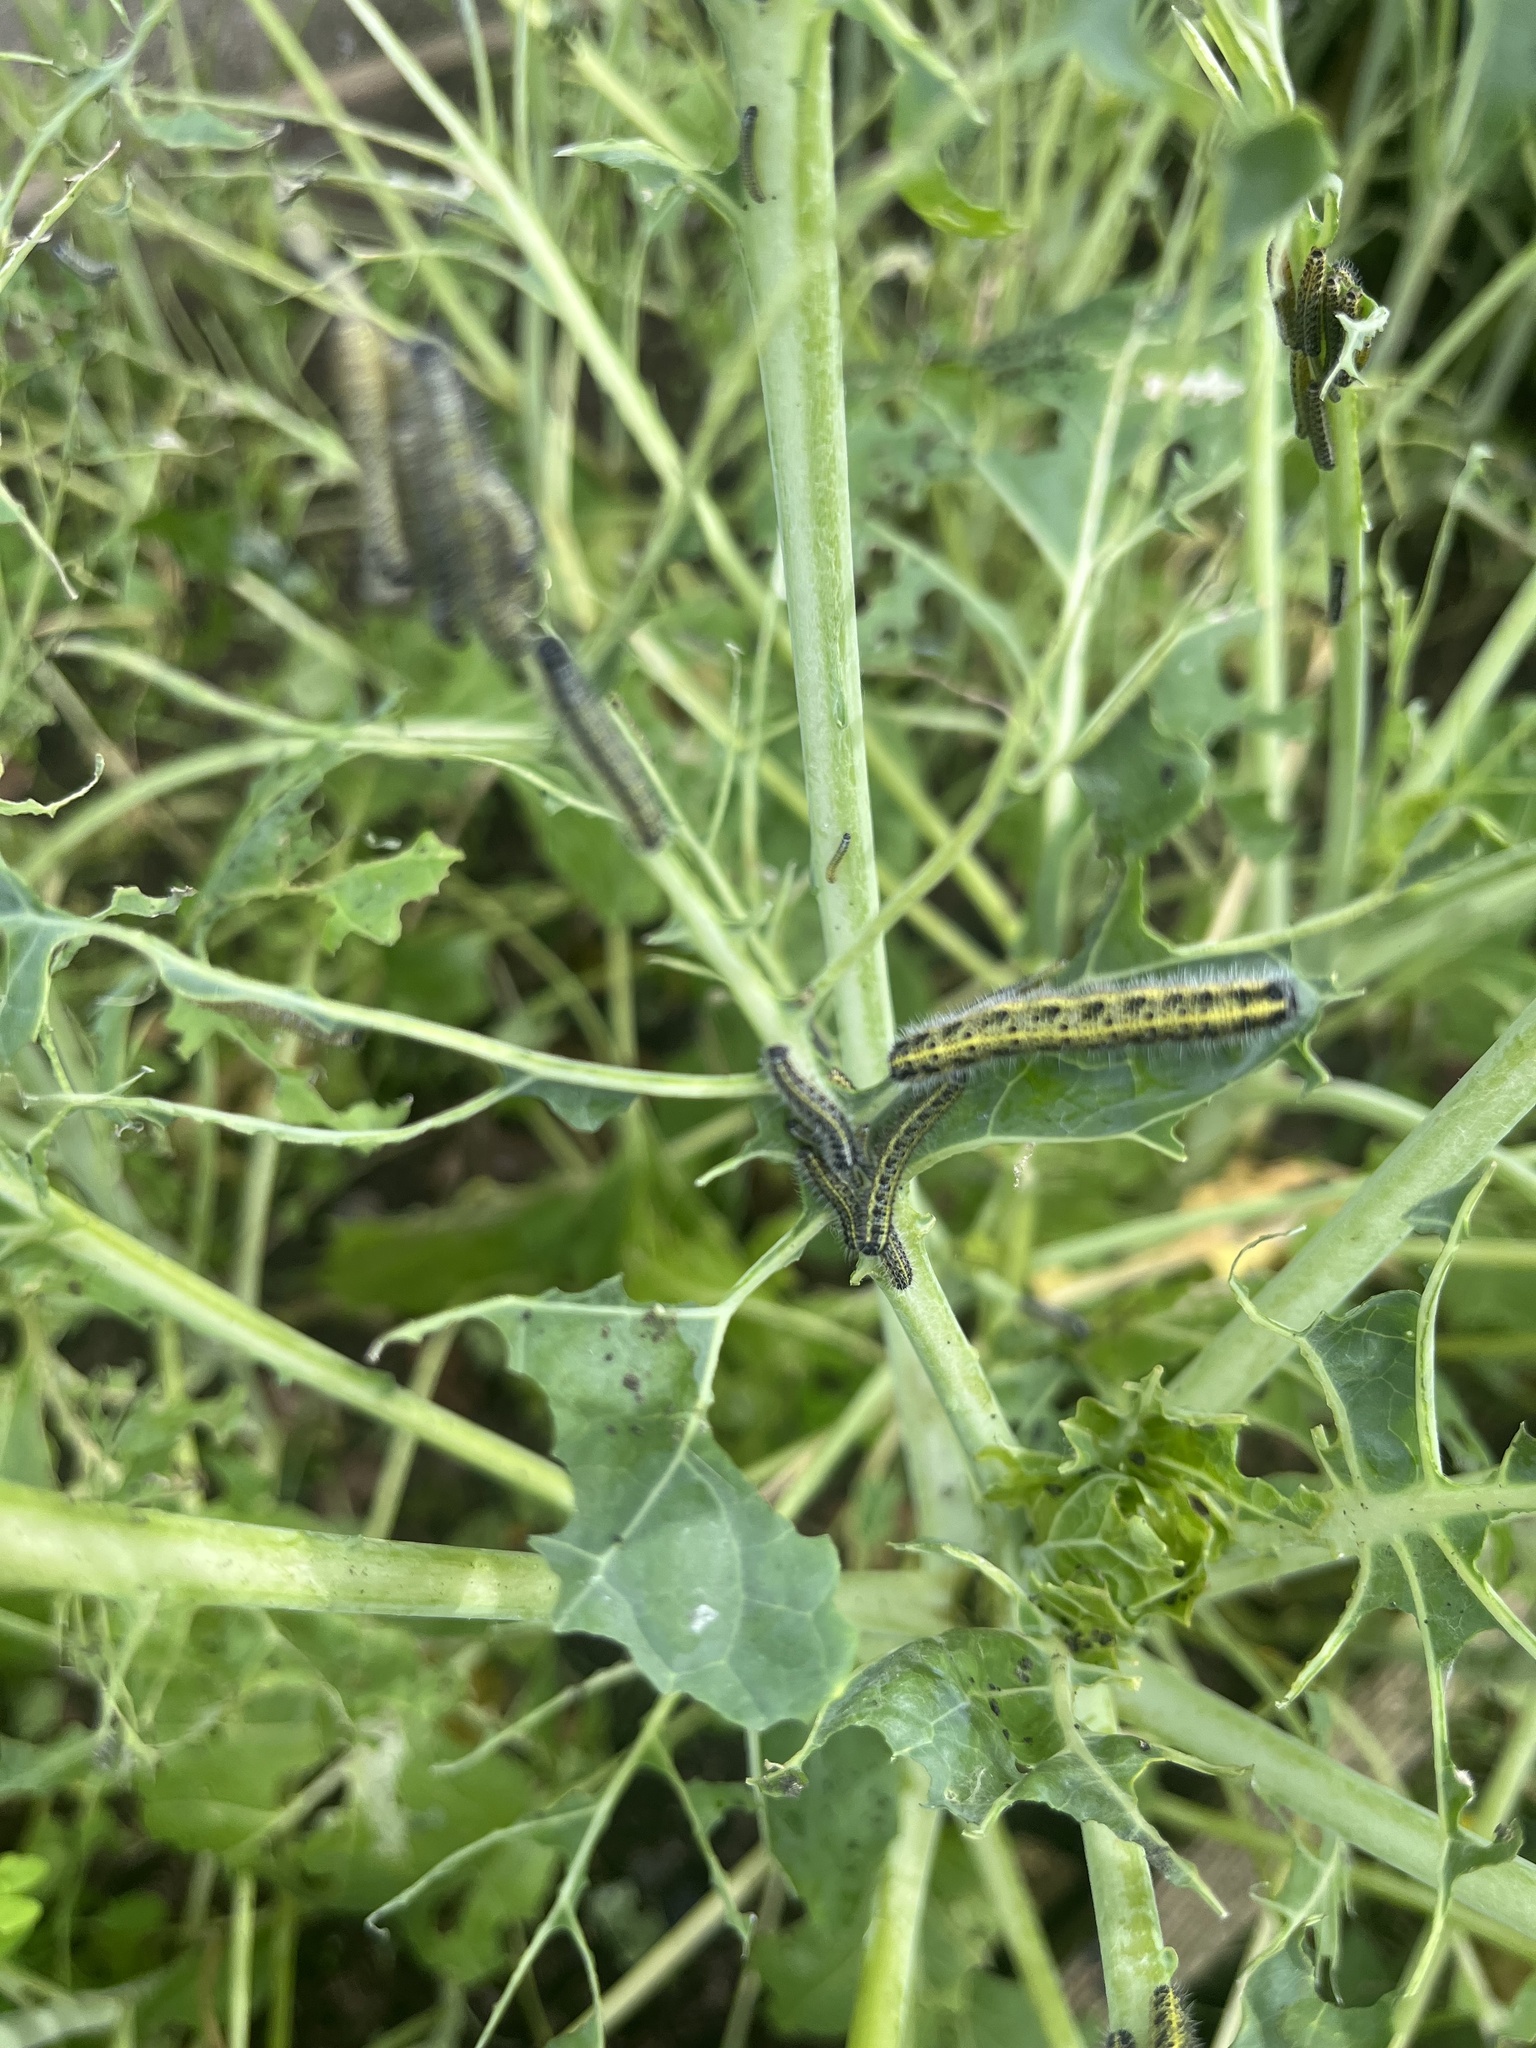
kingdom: Animalia
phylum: Arthropoda
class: Insecta
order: Lepidoptera
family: Pieridae
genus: Pieris
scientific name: Pieris brassicae
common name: Large white
